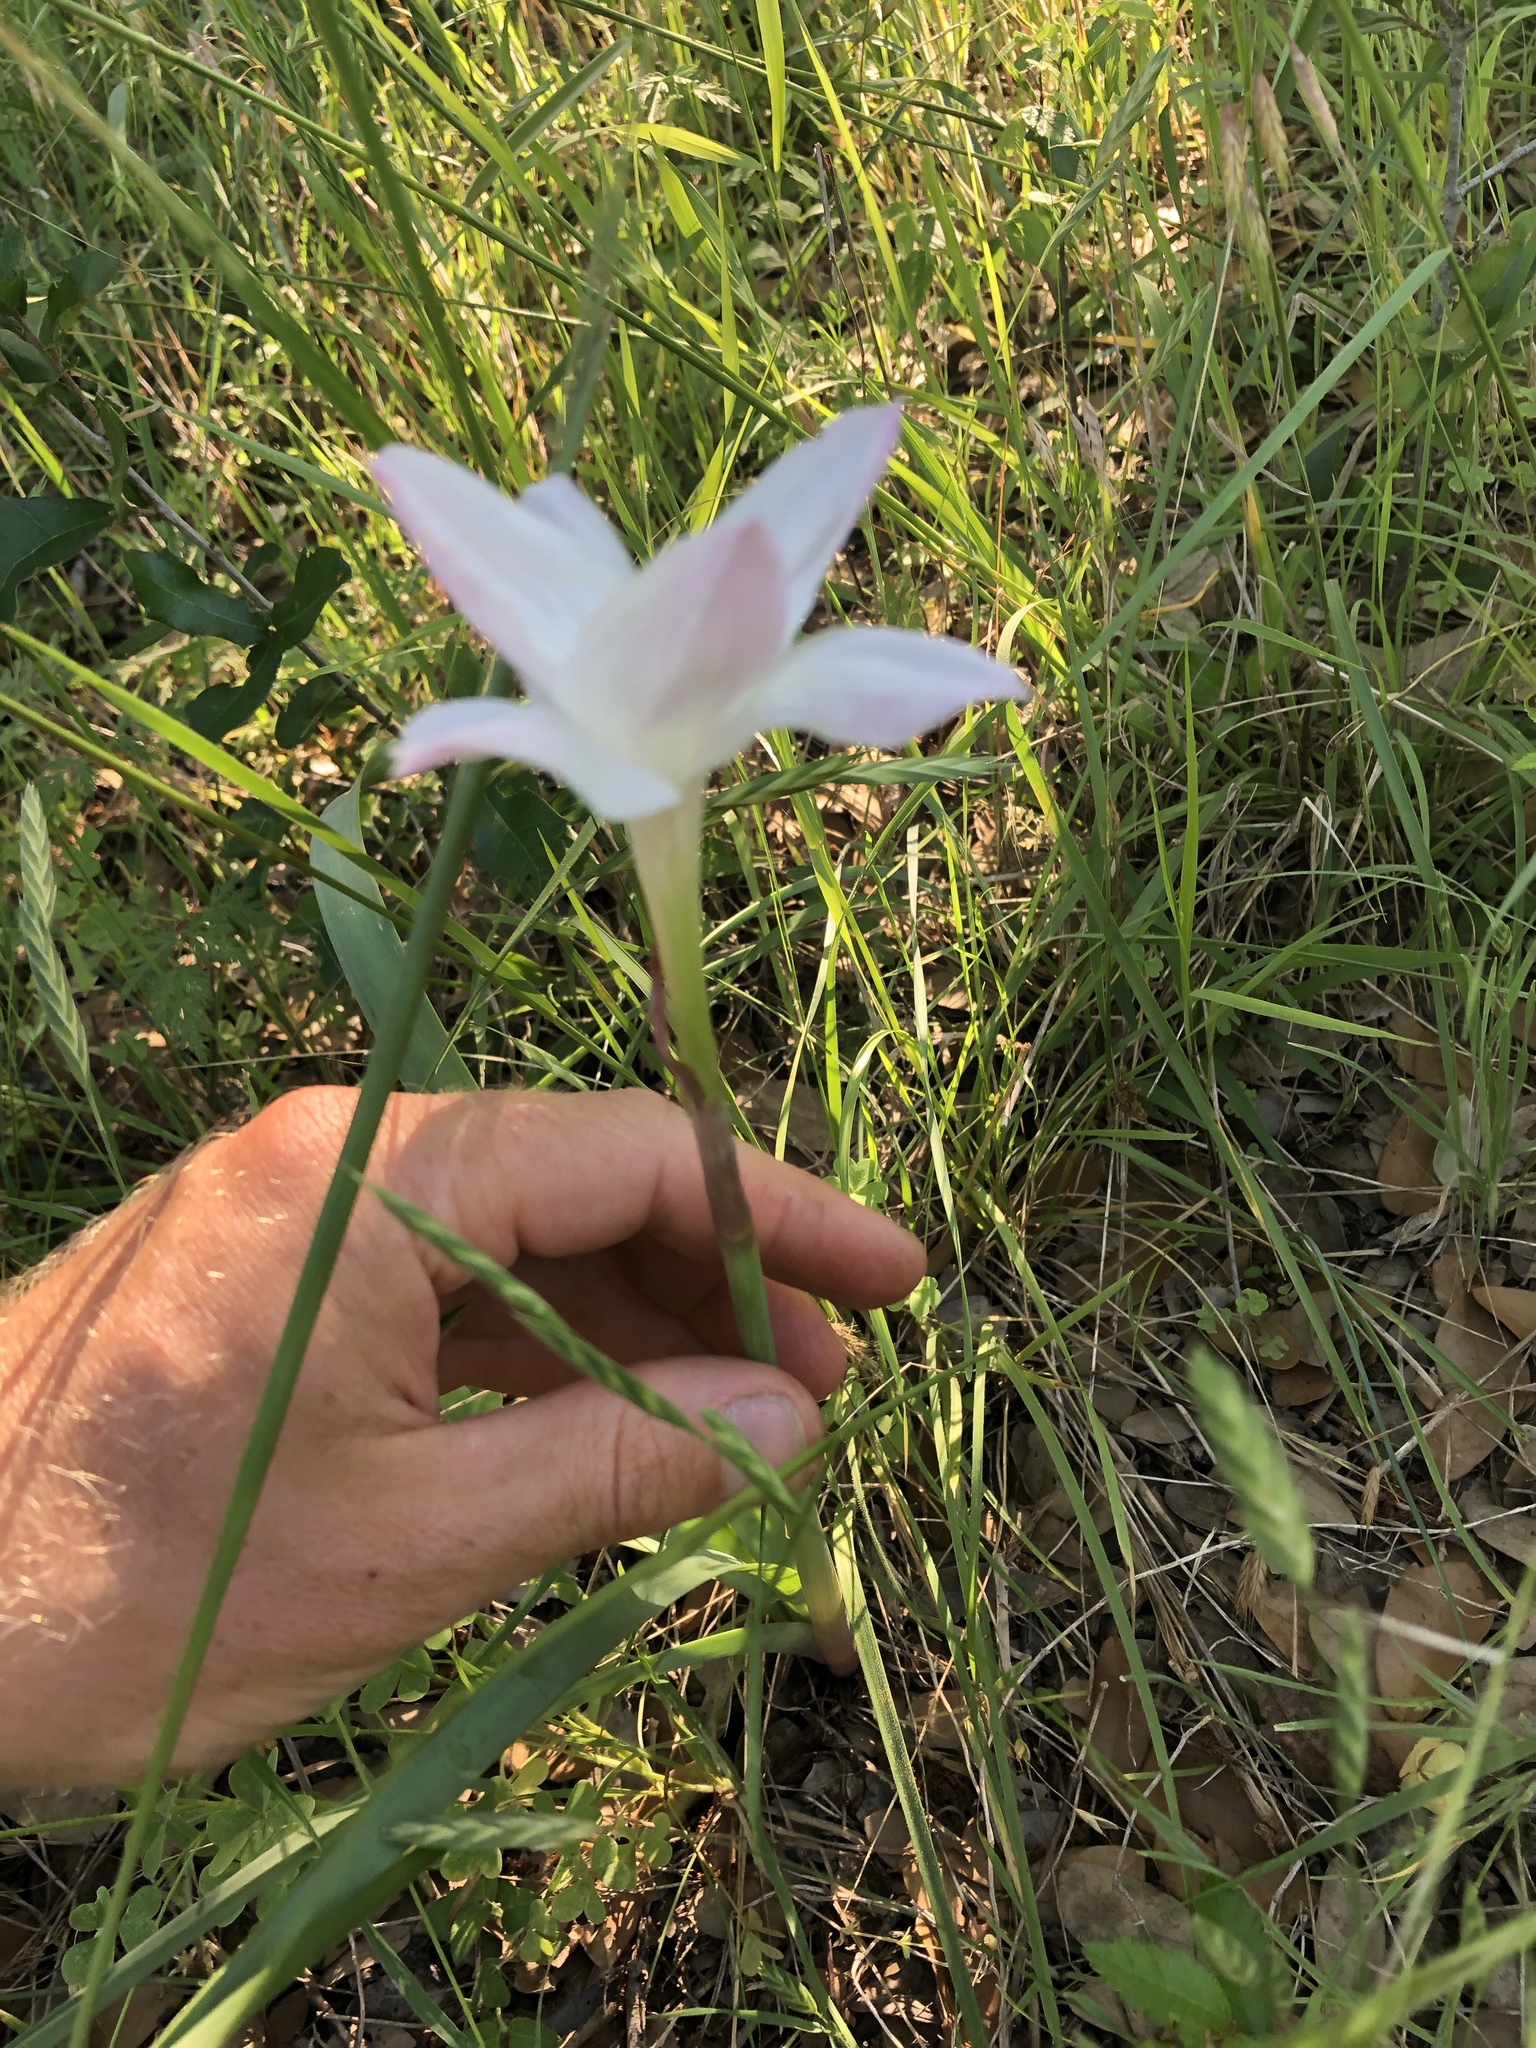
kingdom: Plantae
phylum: Tracheophyta
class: Liliopsida
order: Asparagales
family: Amaryllidaceae
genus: Zephyranthes
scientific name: Zephyranthes drummondii
